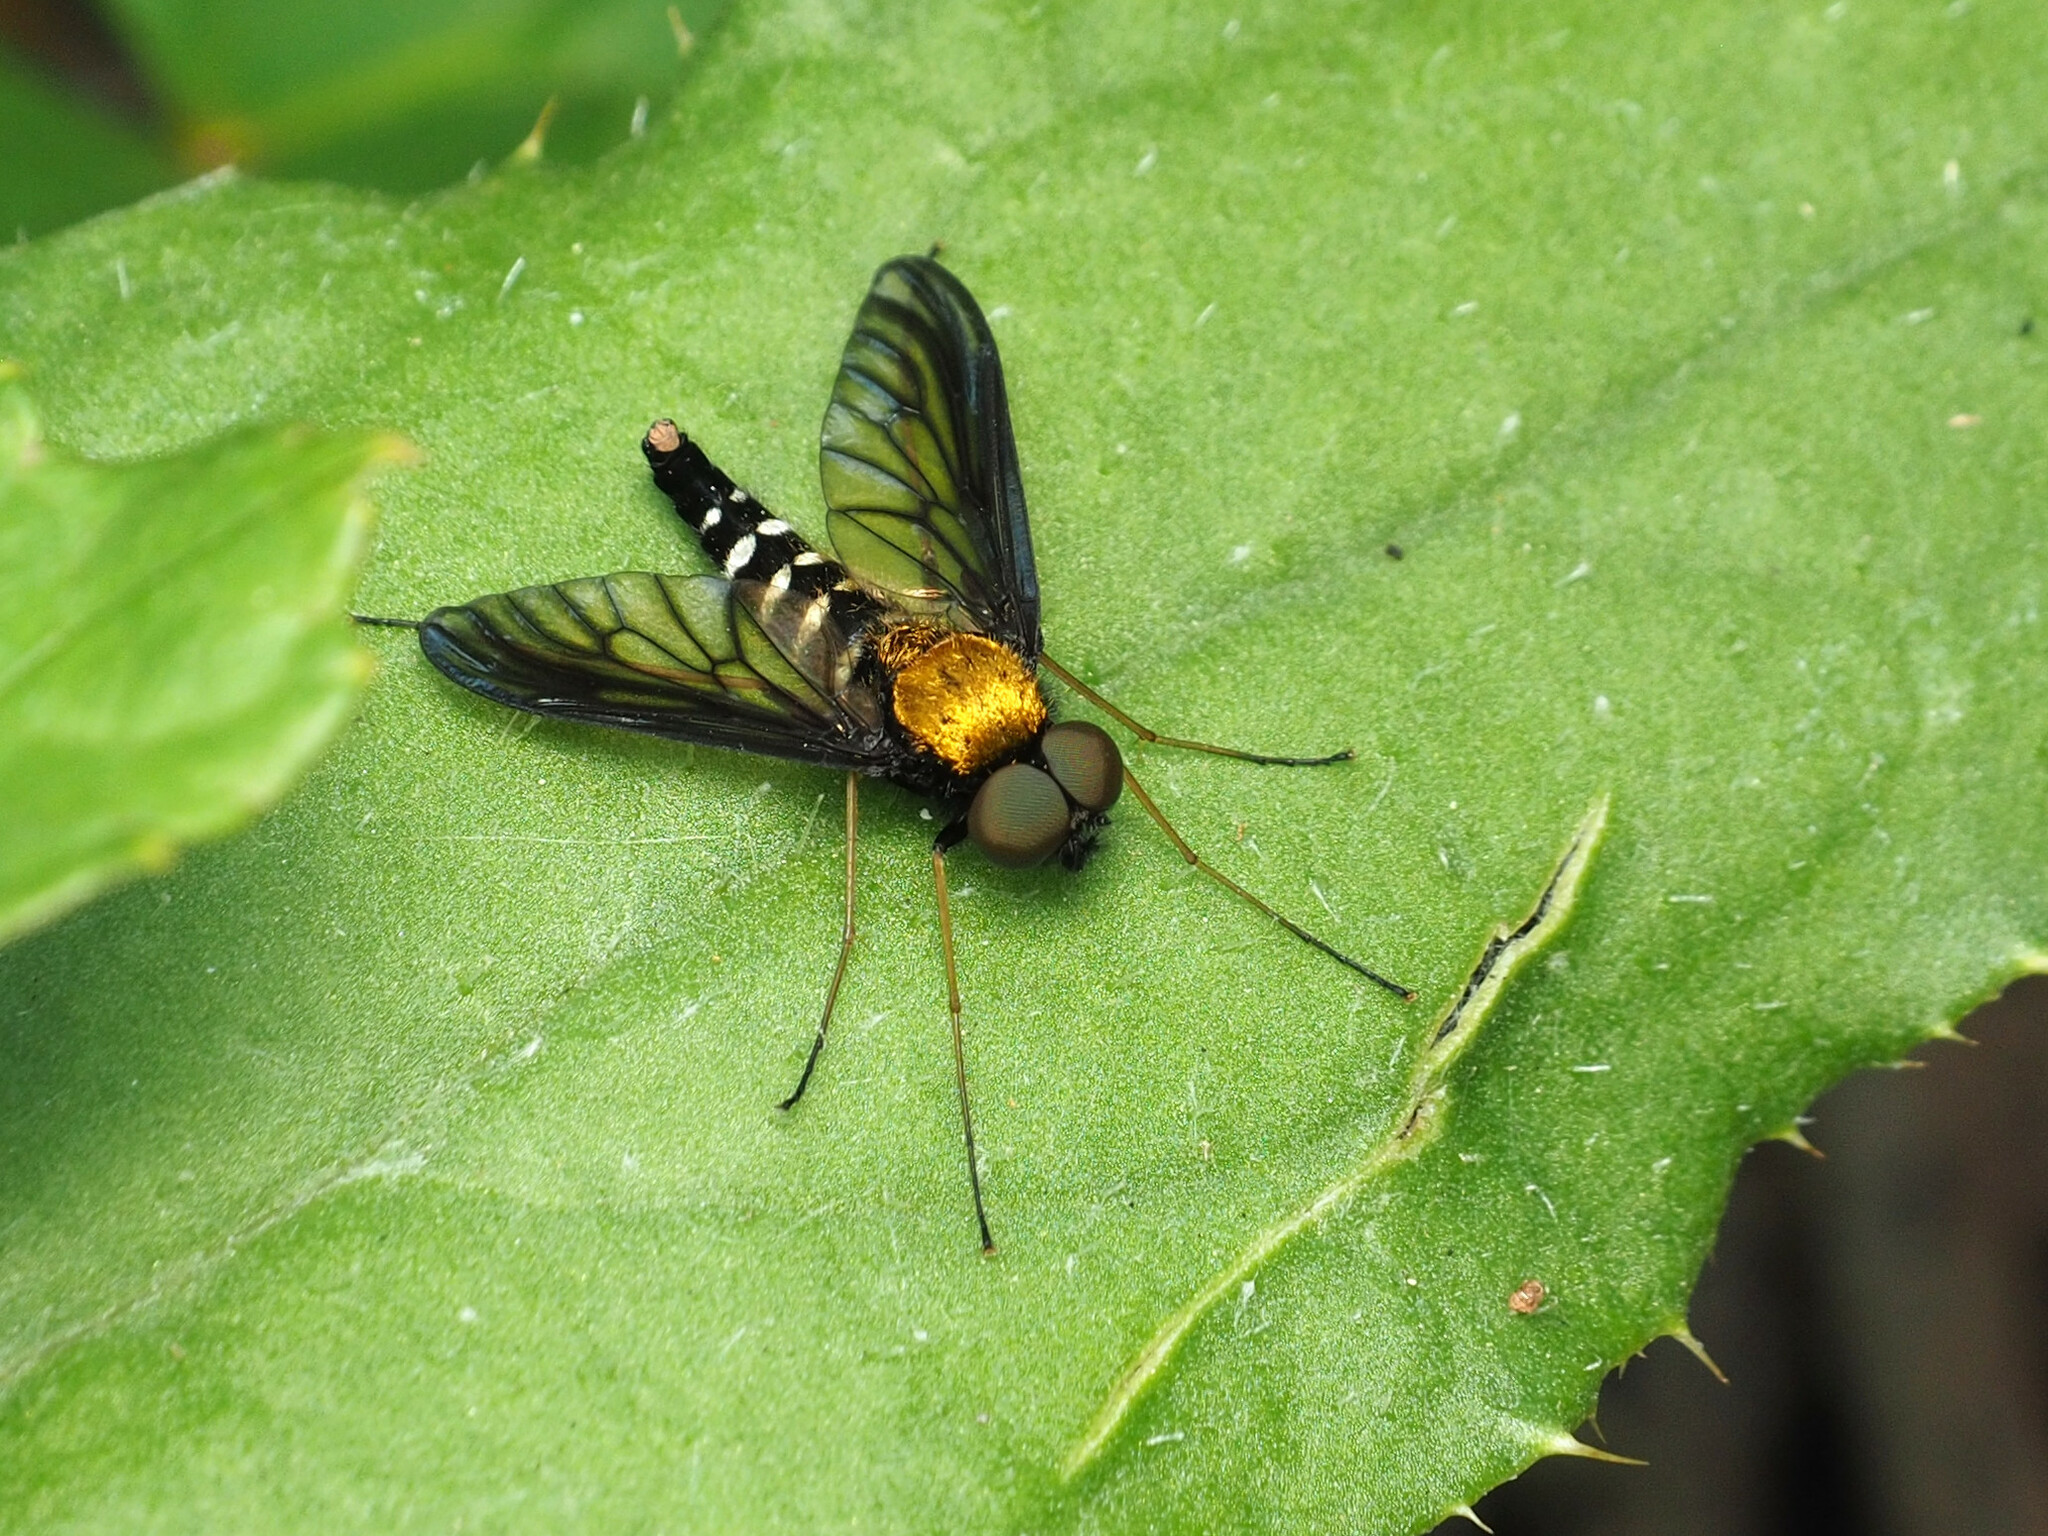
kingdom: Animalia
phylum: Arthropoda
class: Insecta
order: Diptera
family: Rhagionidae
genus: Chrysopilus
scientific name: Chrysopilus thoracicus
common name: Golden-backed snipe fly
